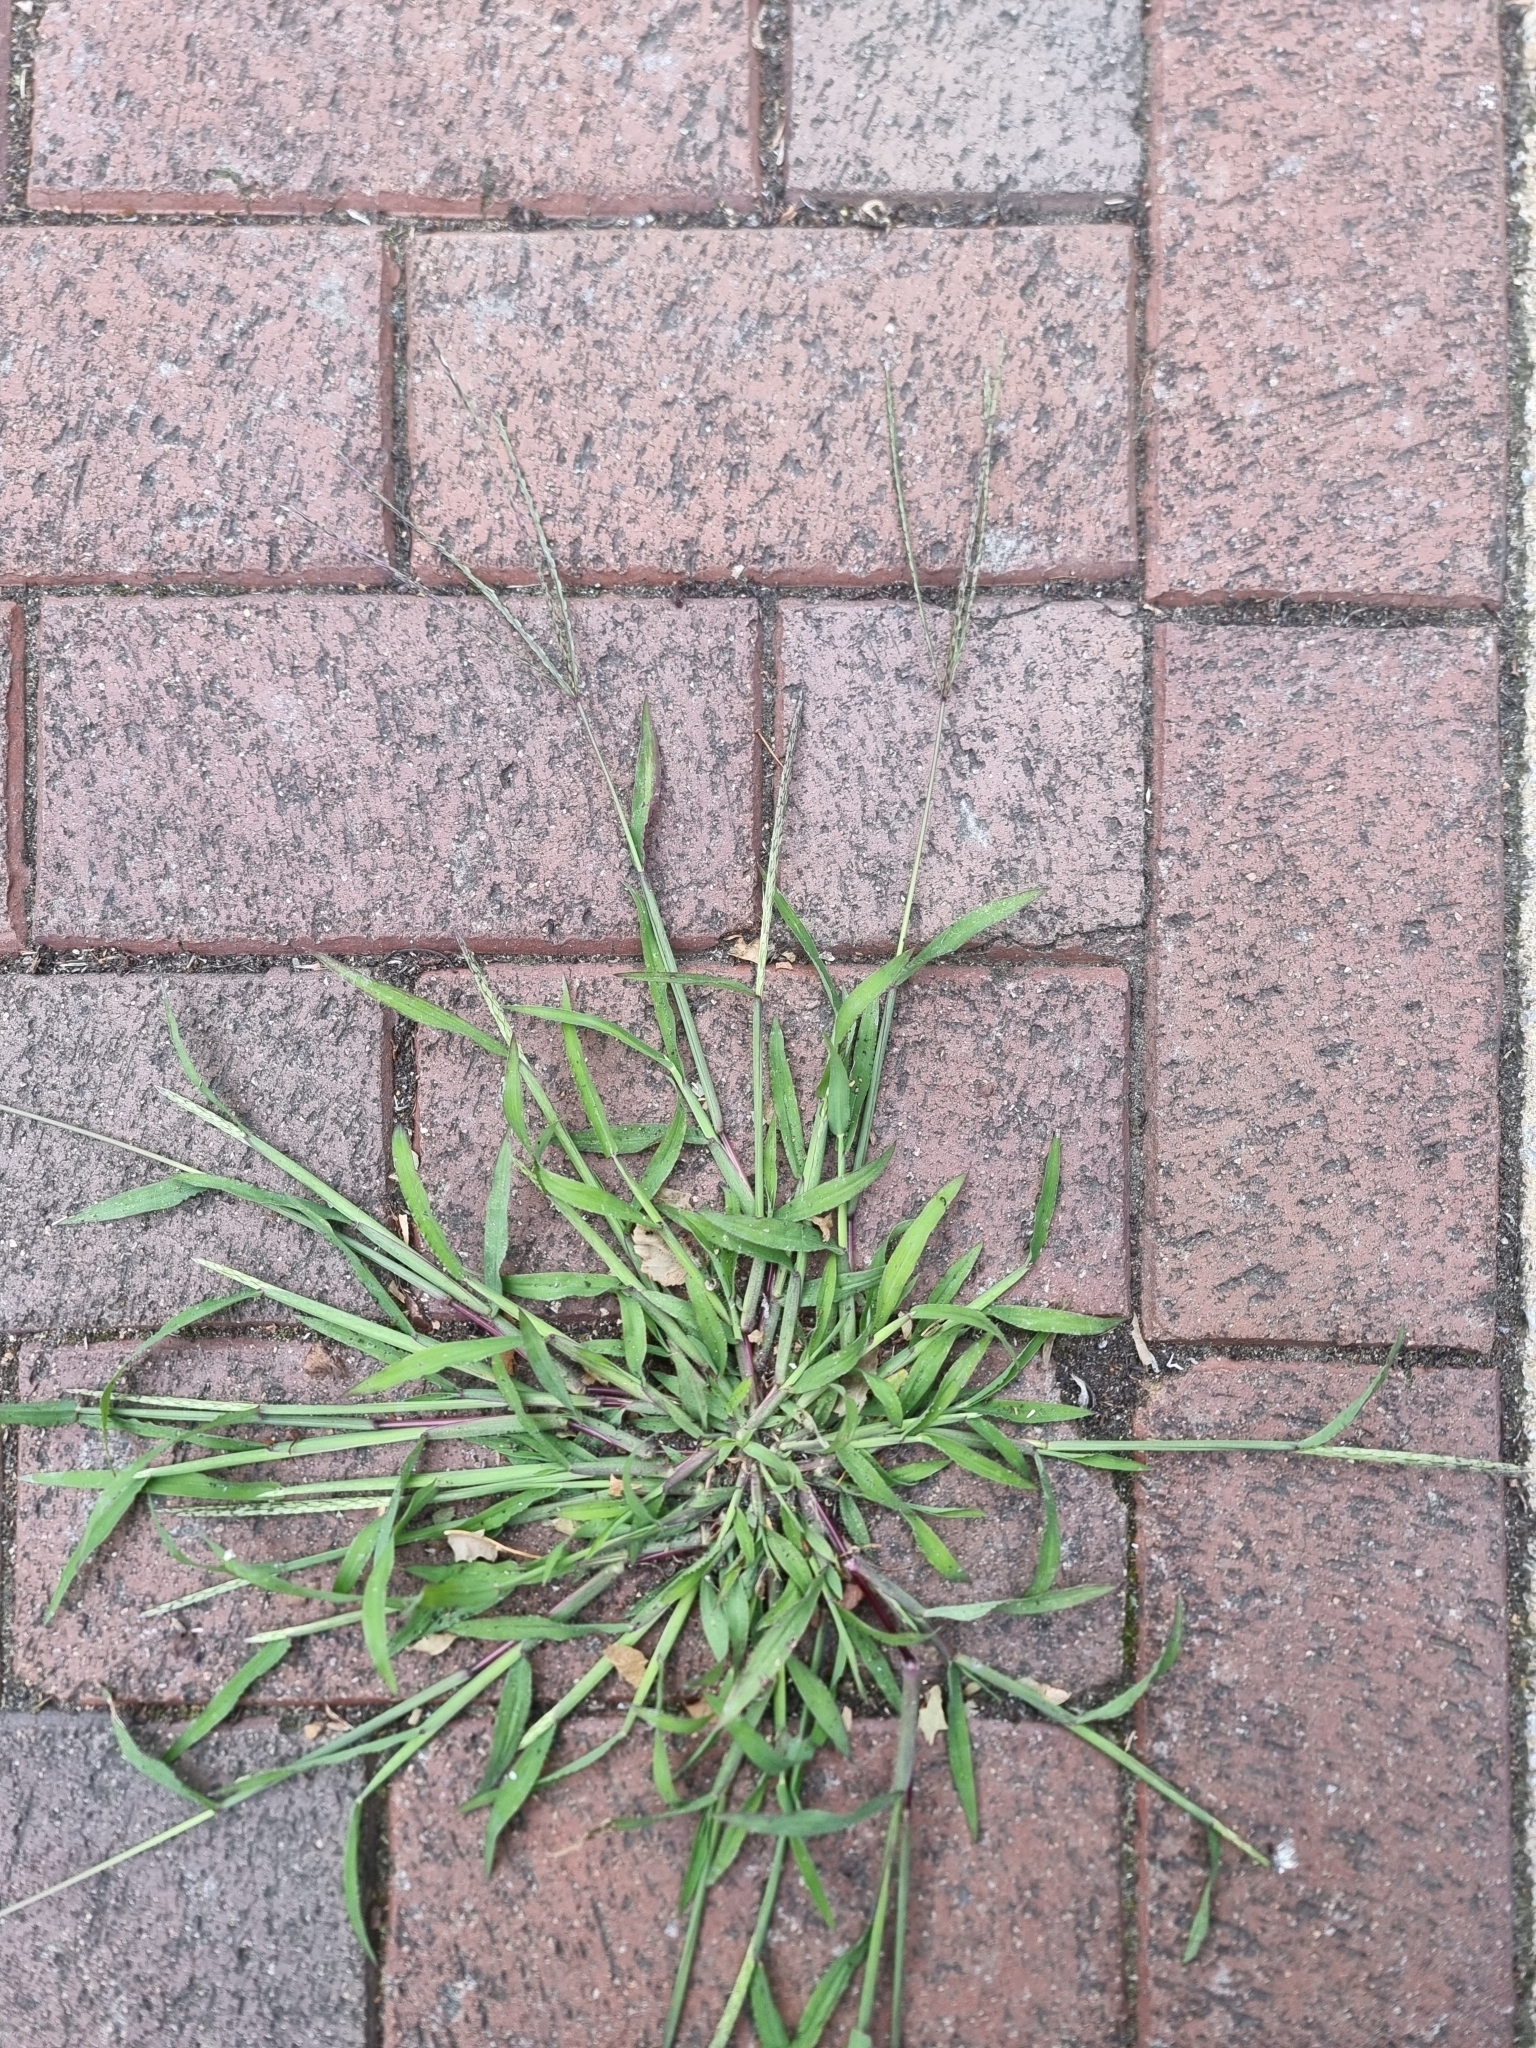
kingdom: Plantae
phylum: Tracheophyta
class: Liliopsida
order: Poales
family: Poaceae
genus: Digitaria
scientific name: Digitaria sanguinalis
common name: Hairy crabgrass
